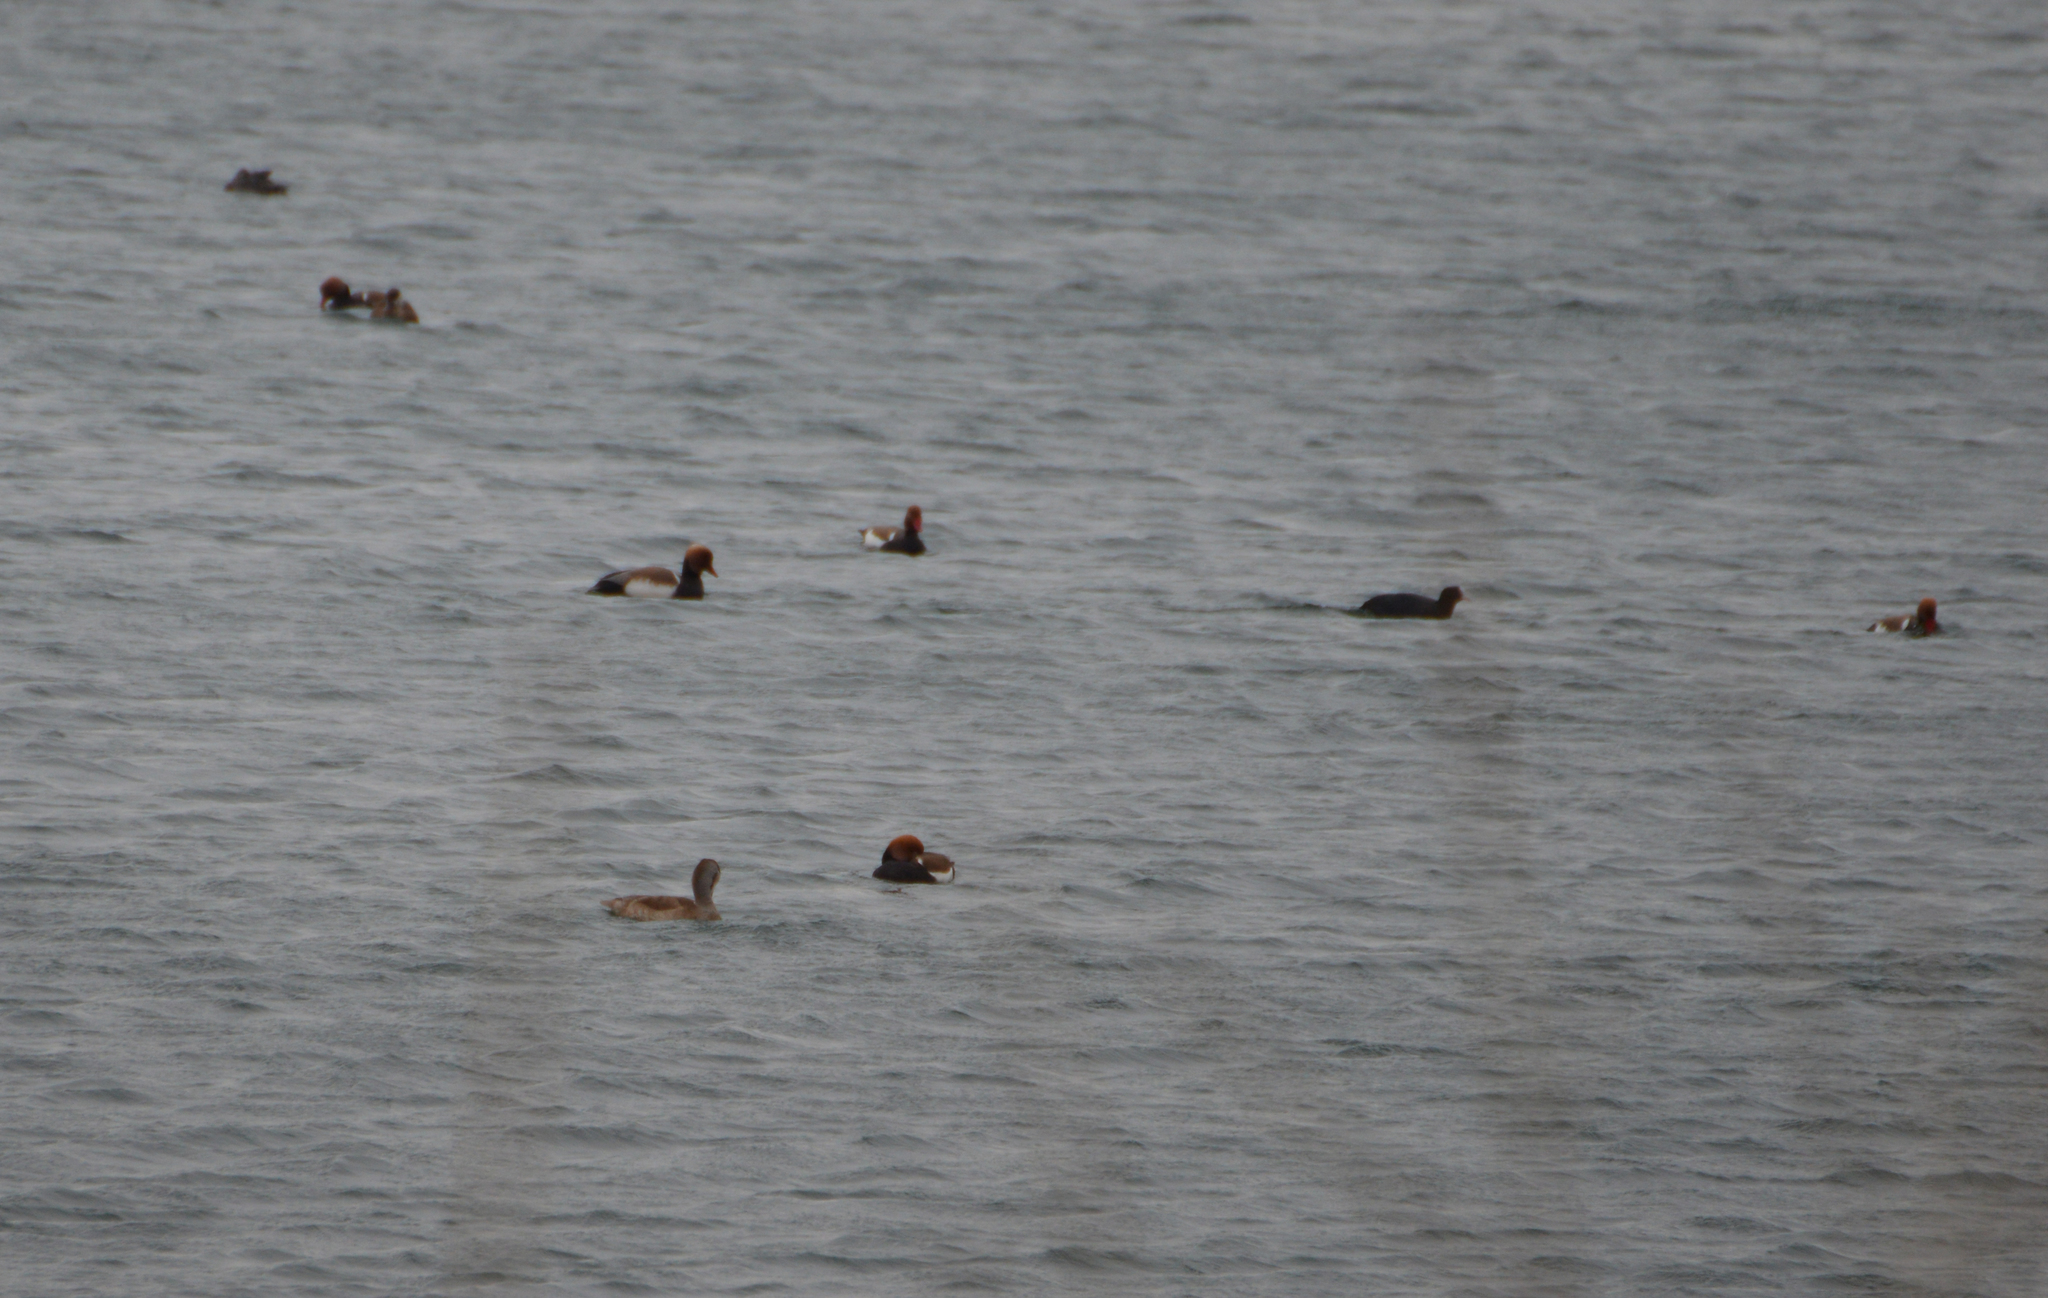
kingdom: Animalia
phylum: Chordata
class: Aves
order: Anseriformes
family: Anatidae
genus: Aythya
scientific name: Aythya marila
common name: Greater scaup
